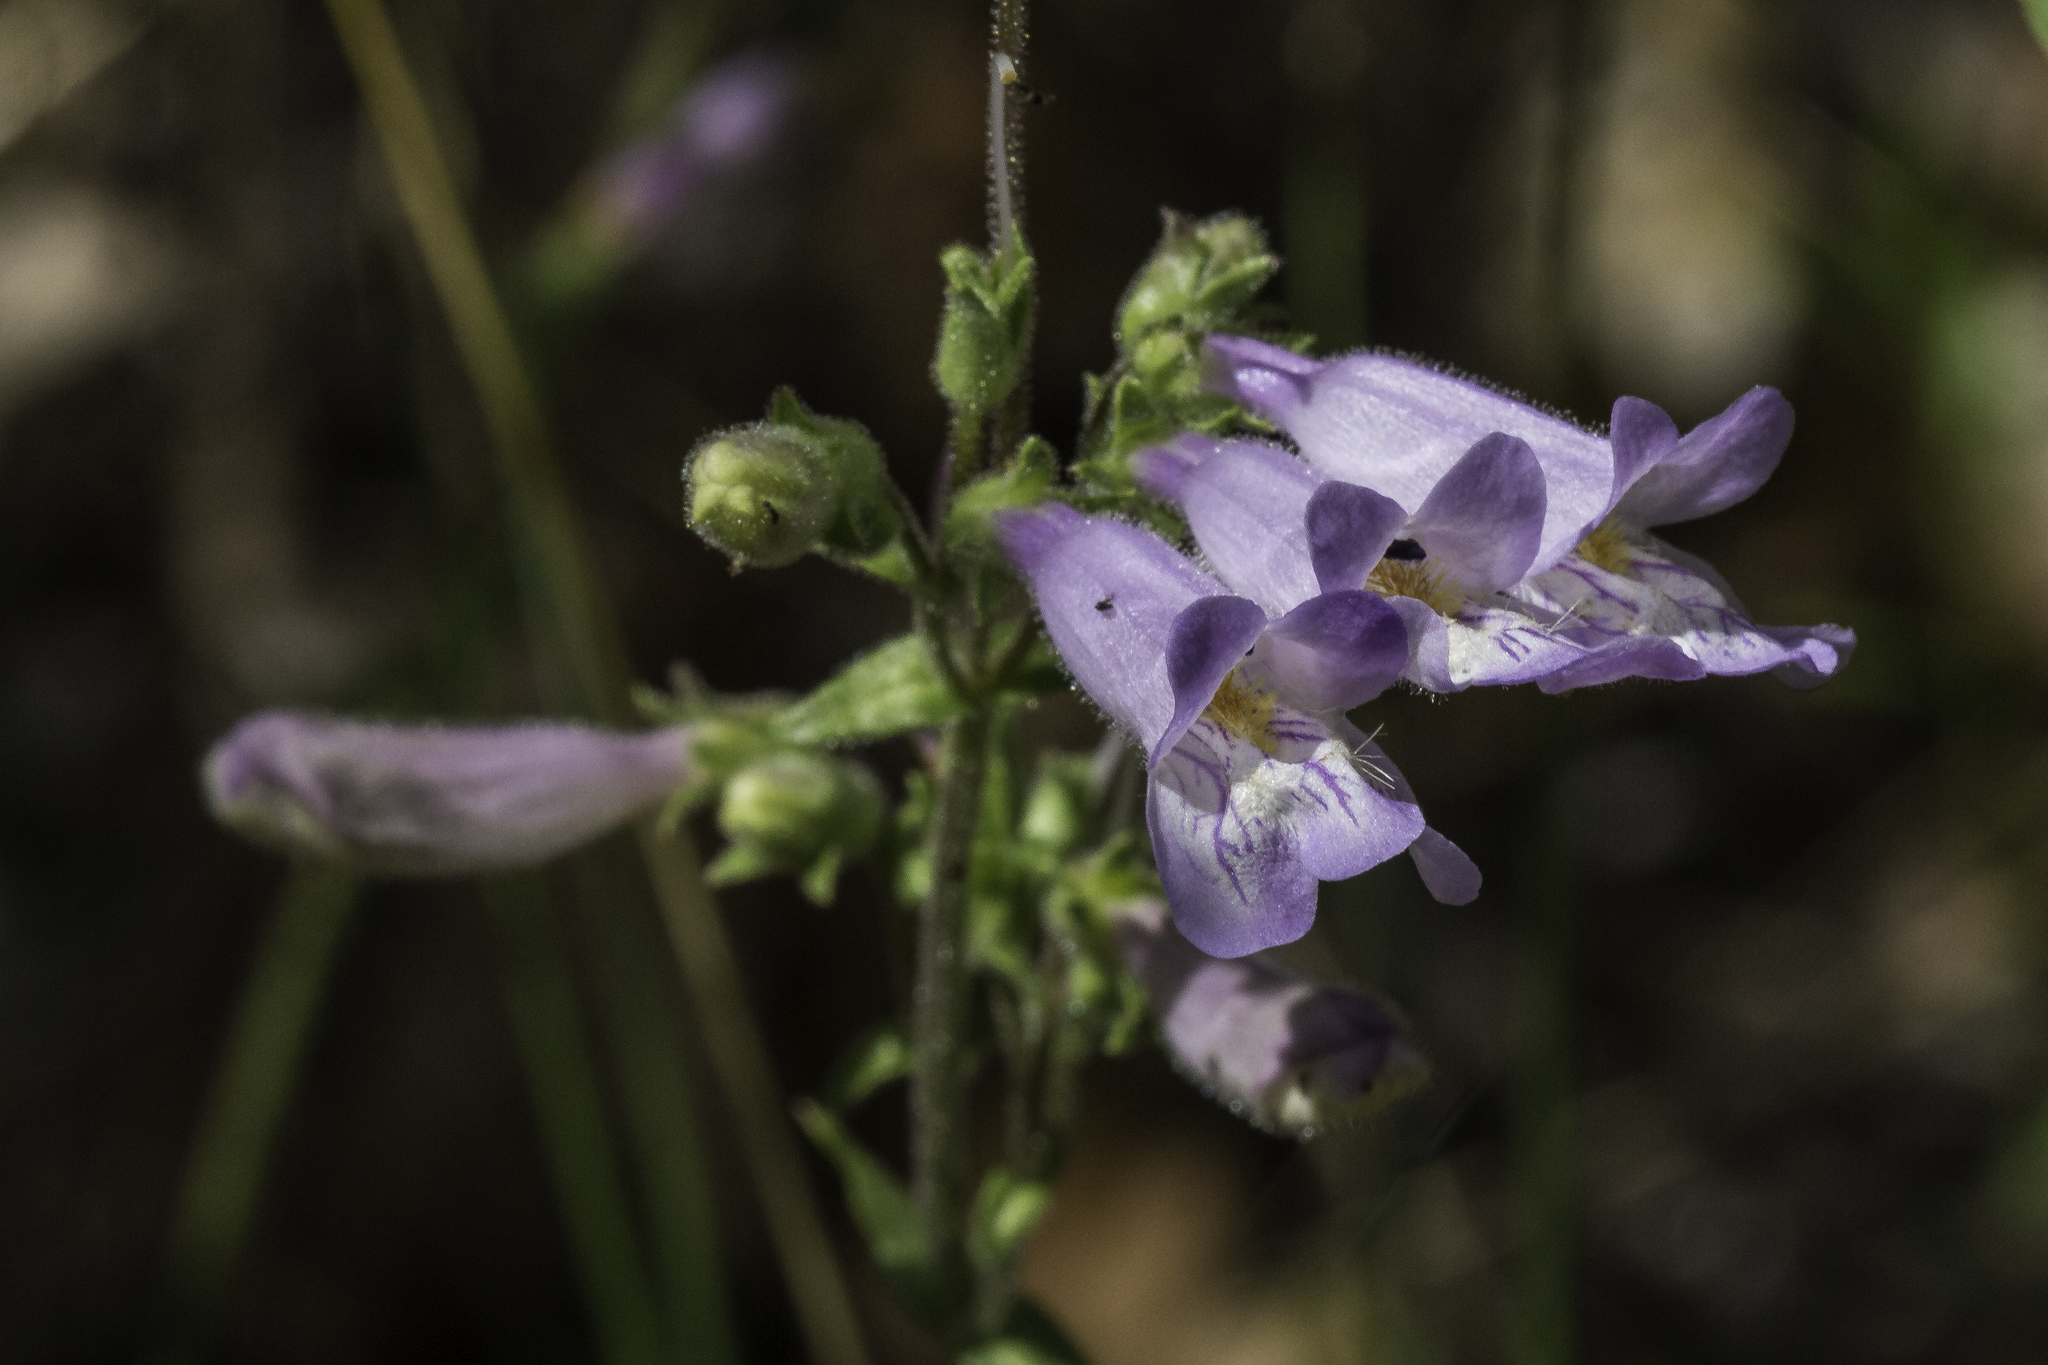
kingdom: Plantae
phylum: Tracheophyta
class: Magnoliopsida
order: Lamiales
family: Plantaginaceae
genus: Penstemon
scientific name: Penstemon oliganthus
